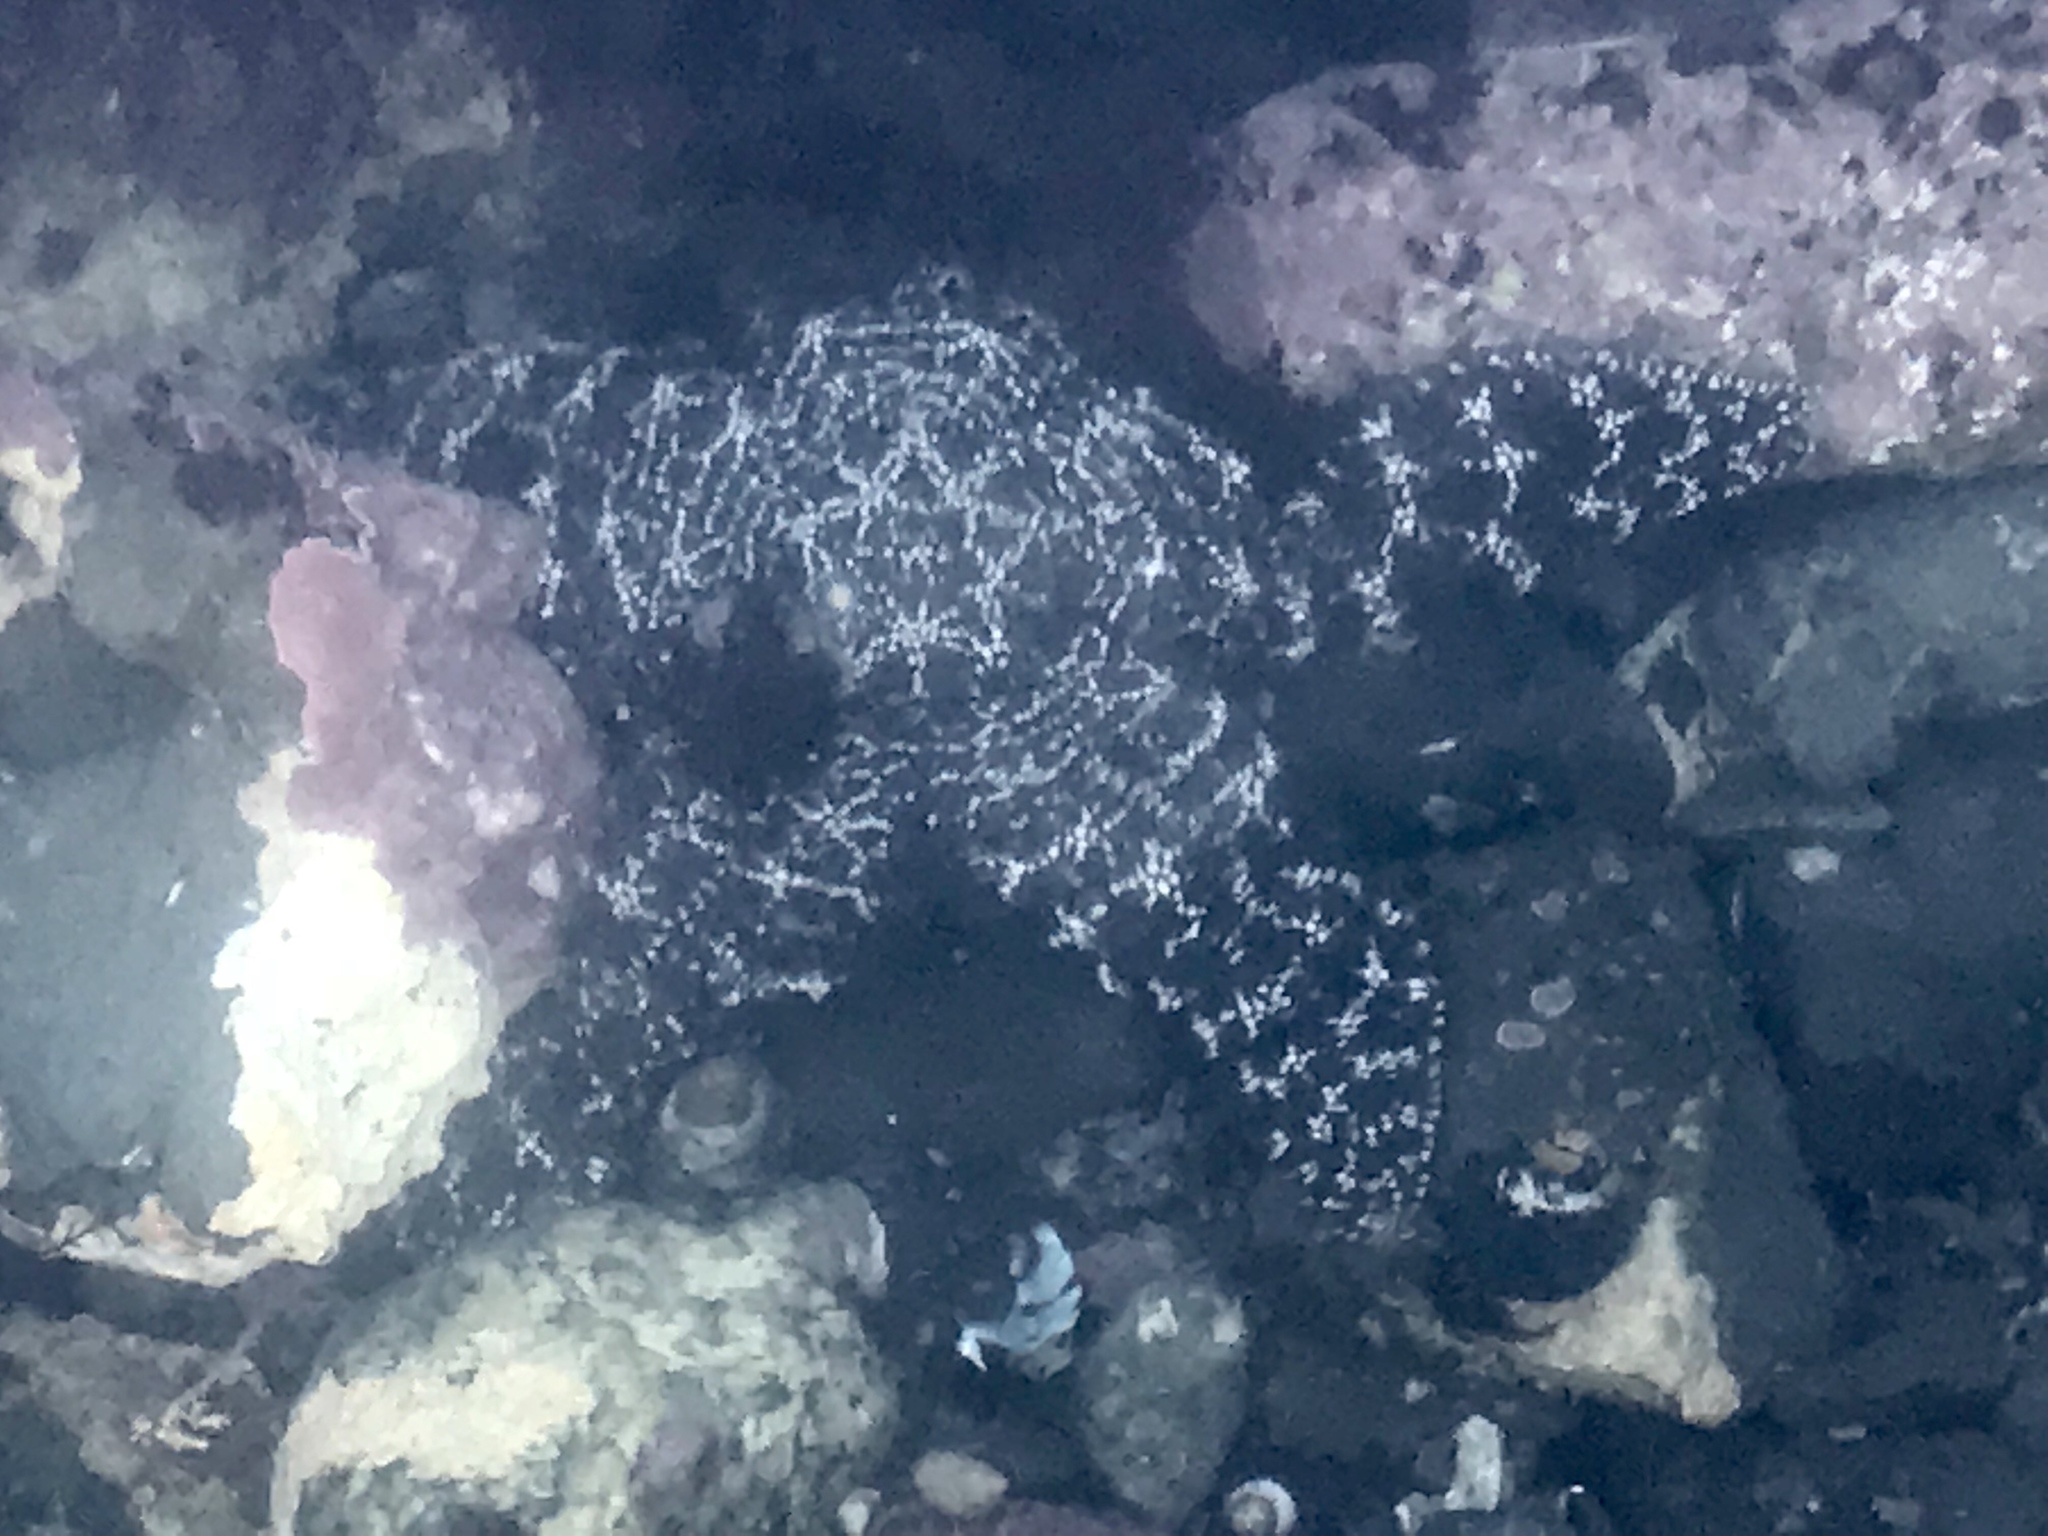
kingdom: Animalia
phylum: Echinodermata
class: Asteroidea
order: Forcipulatida
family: Asteriidae
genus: Pisaster
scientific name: Pisaster ochraceus
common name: Ochre stars
